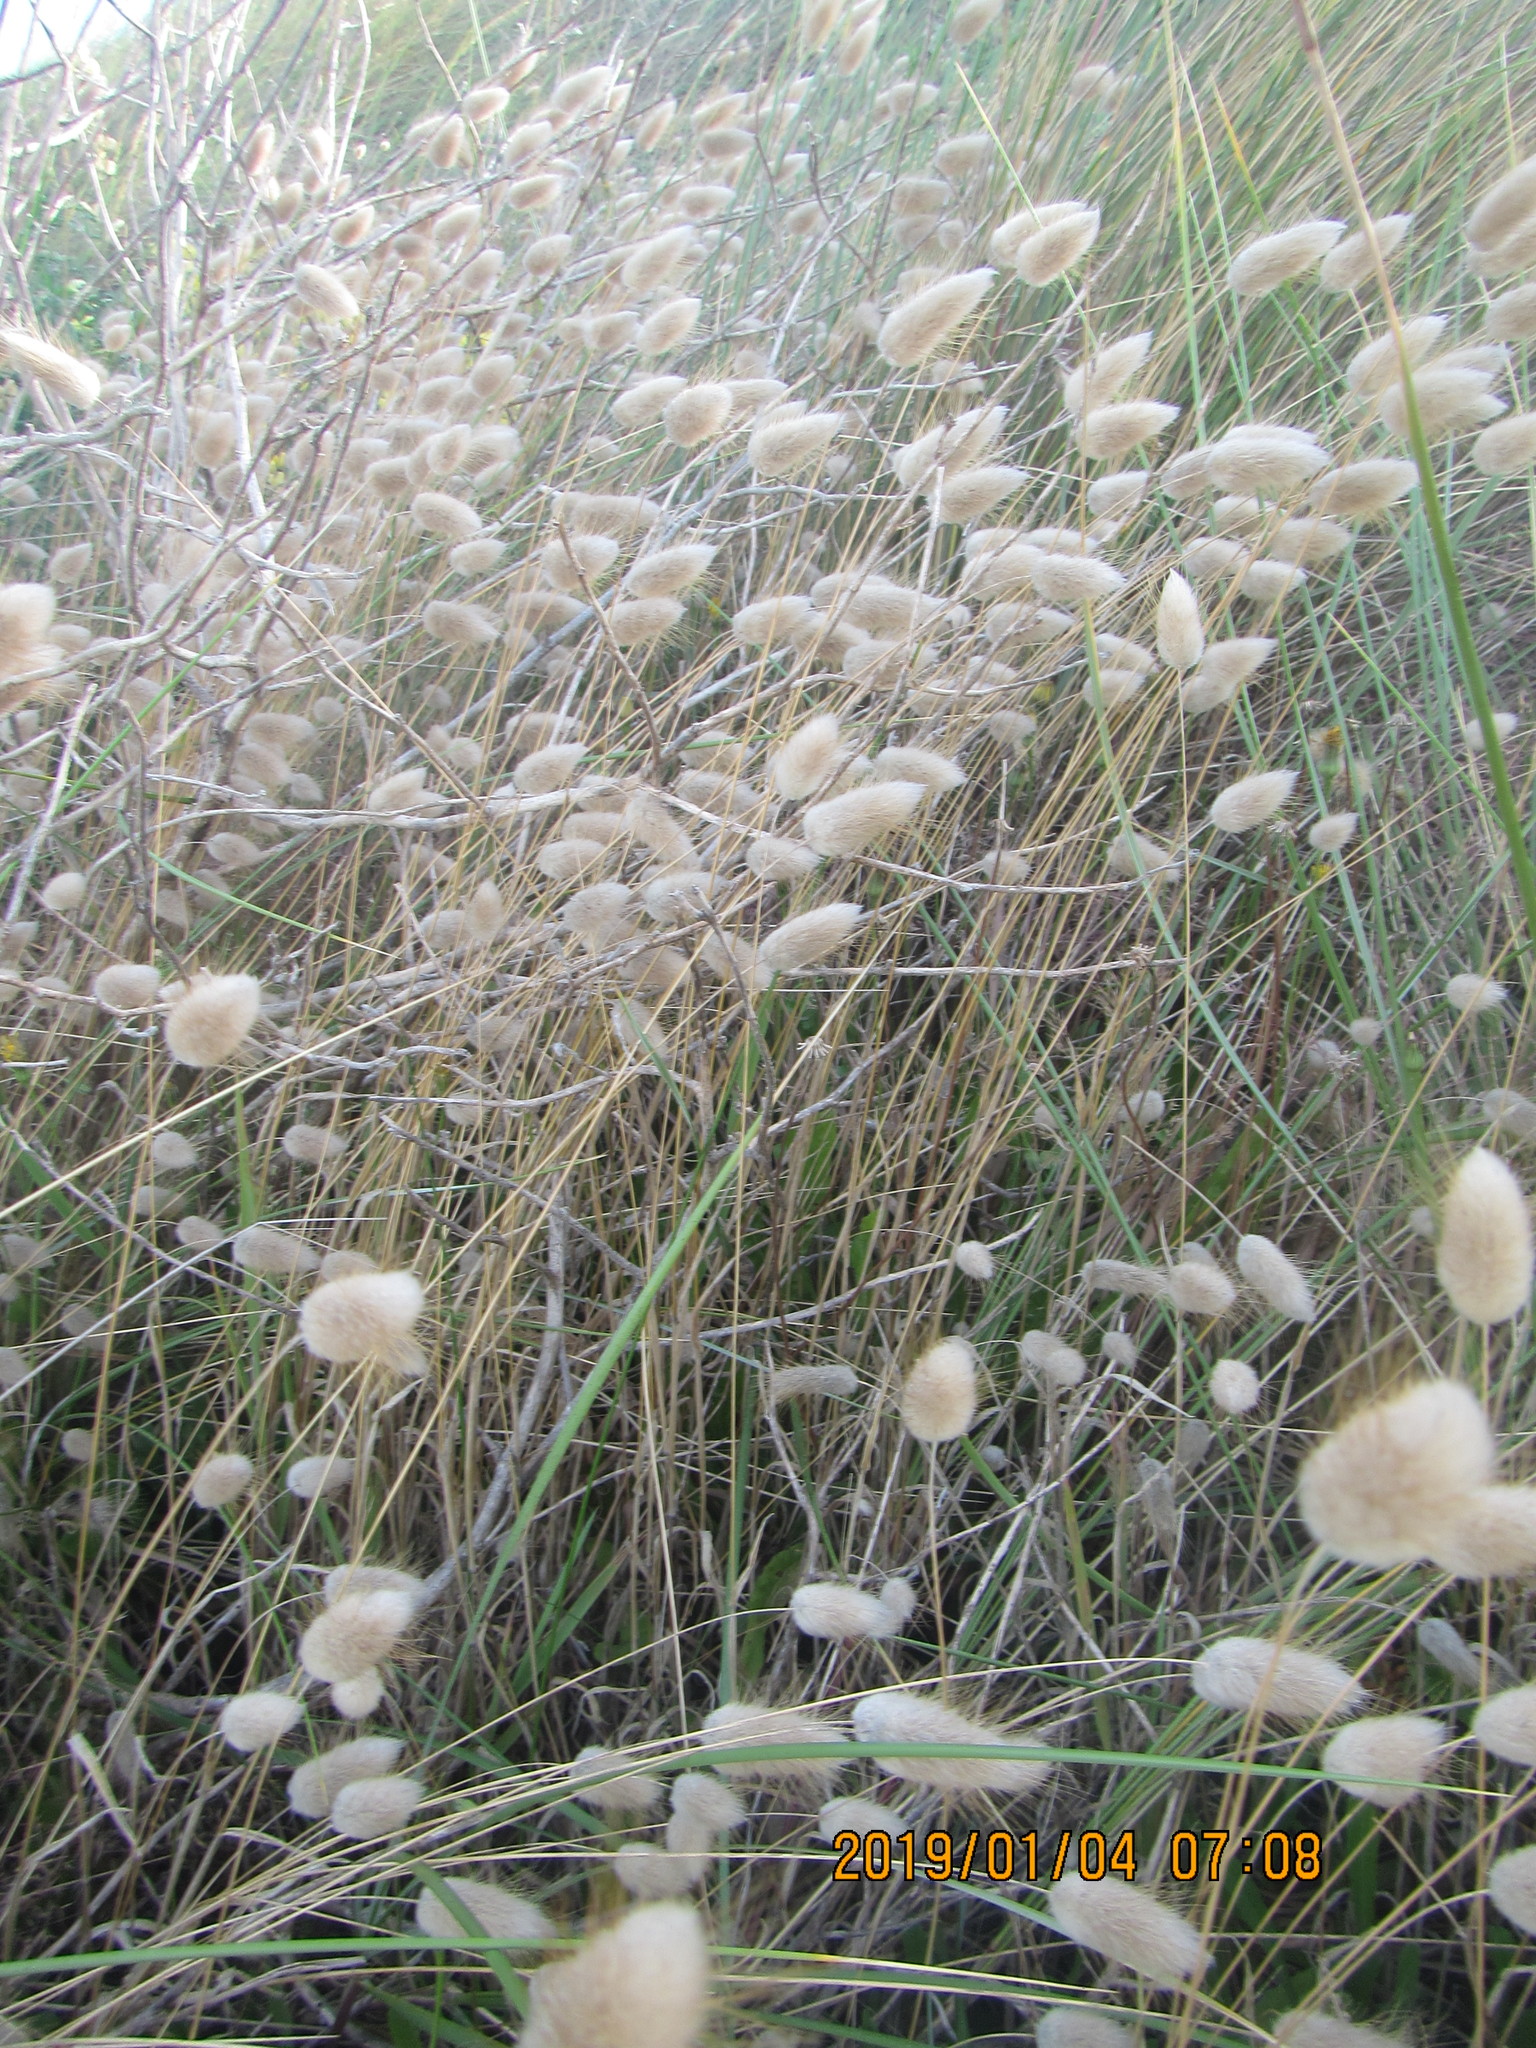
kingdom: Plantae
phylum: Tracheophyta
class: Liliopsida
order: Poales
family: Poaceae
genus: Lagurus
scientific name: Lagurus ovatus
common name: Hare's-tail
